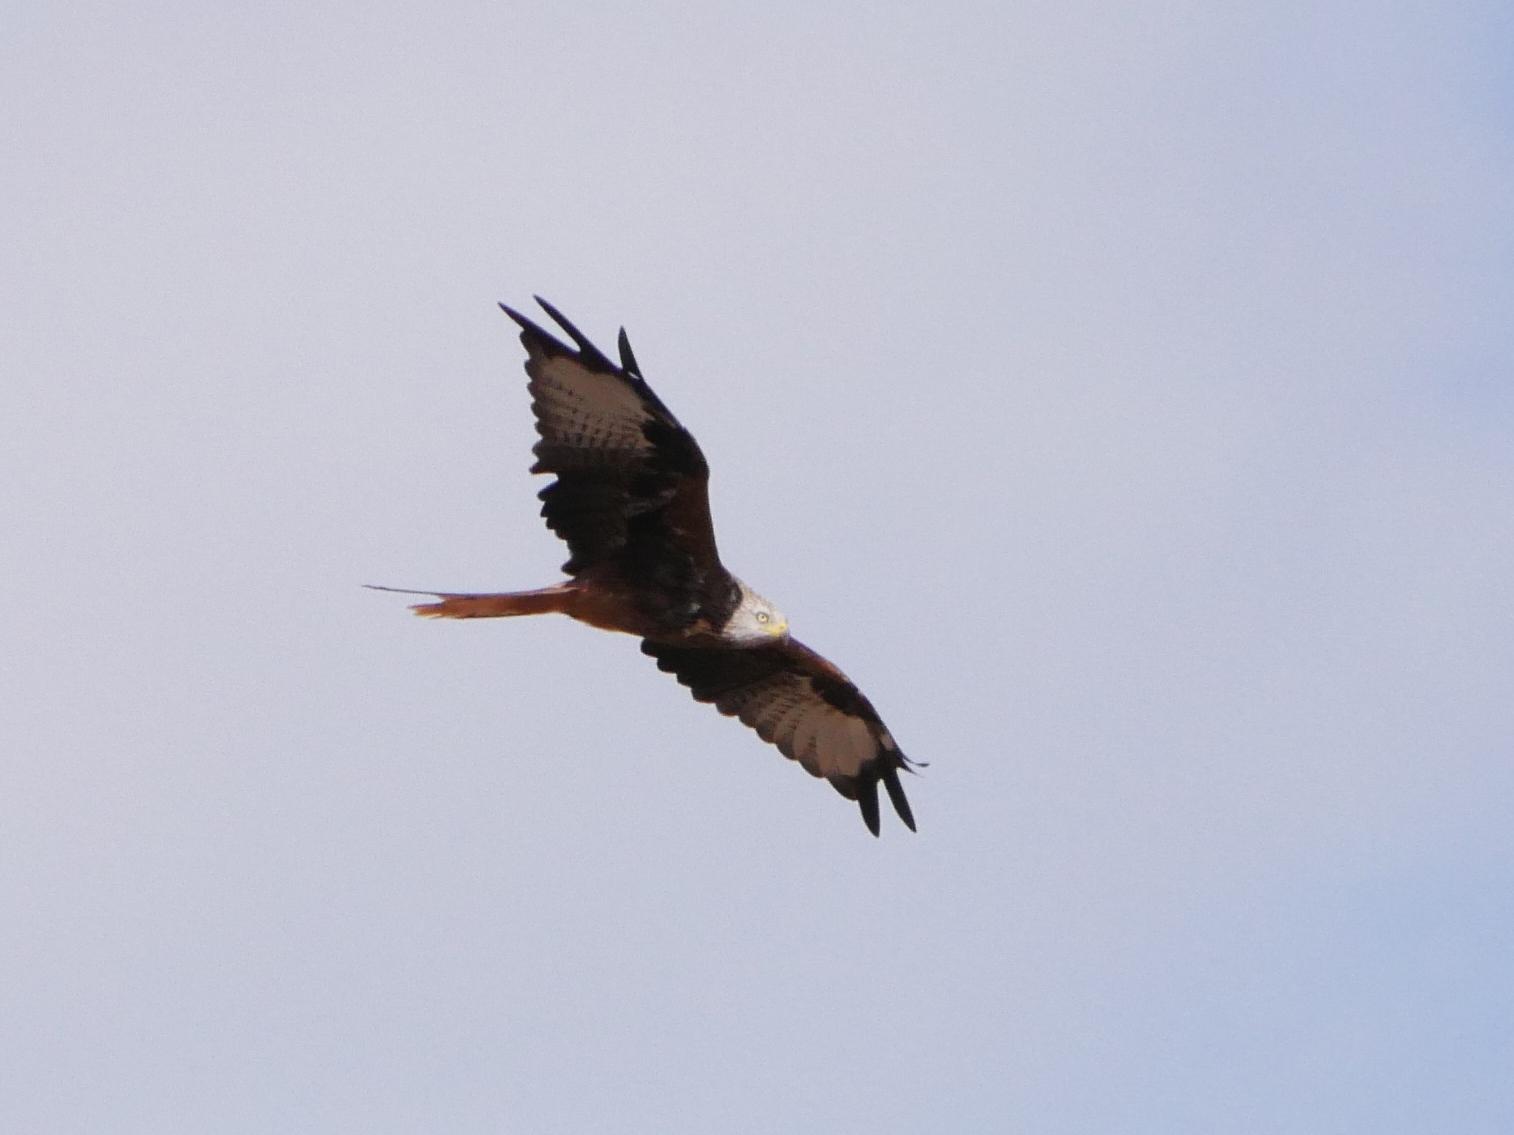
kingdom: Animalia
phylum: Chordata
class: Aves
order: Accipitriformes
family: Accipitridae
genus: Milvus
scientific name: Milvus milvus
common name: Red kite
